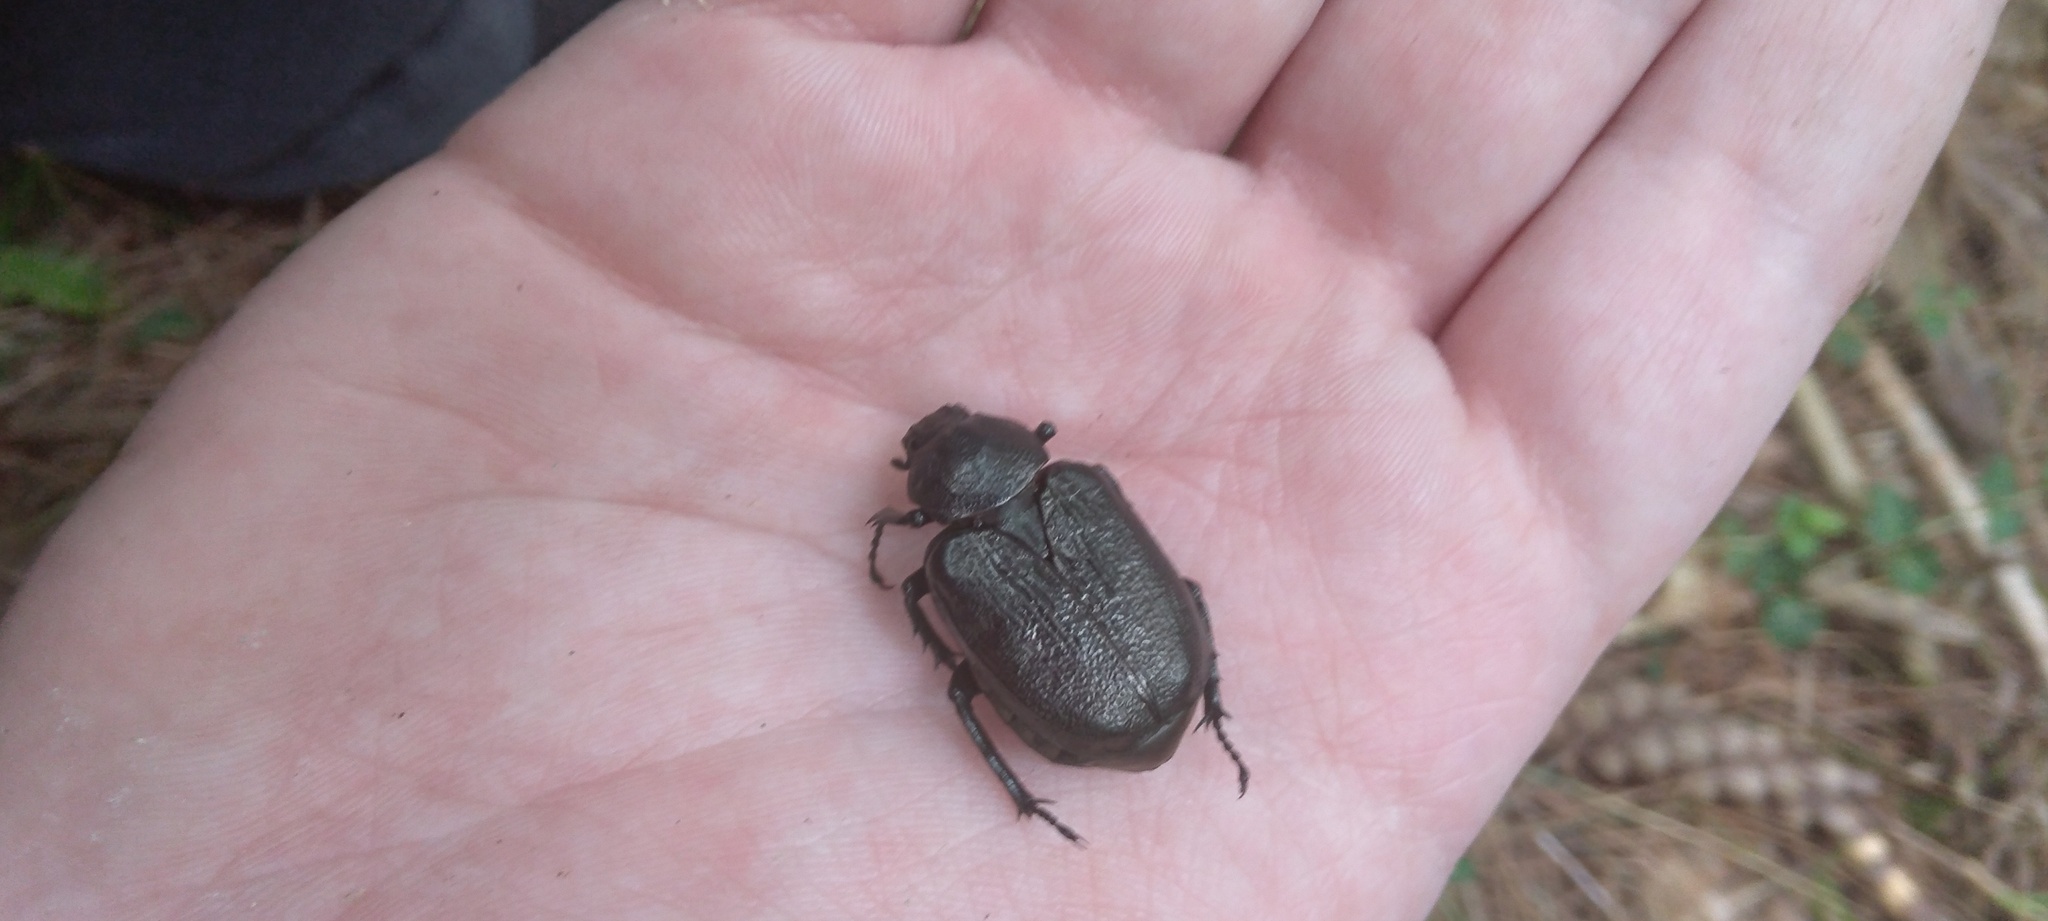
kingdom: Animalia
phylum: Arthropoda
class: Insecta
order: Coleoptera
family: Scarabaeidae
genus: Osmoderma
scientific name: Osmoderma scabra
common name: Rough hermit beetle
